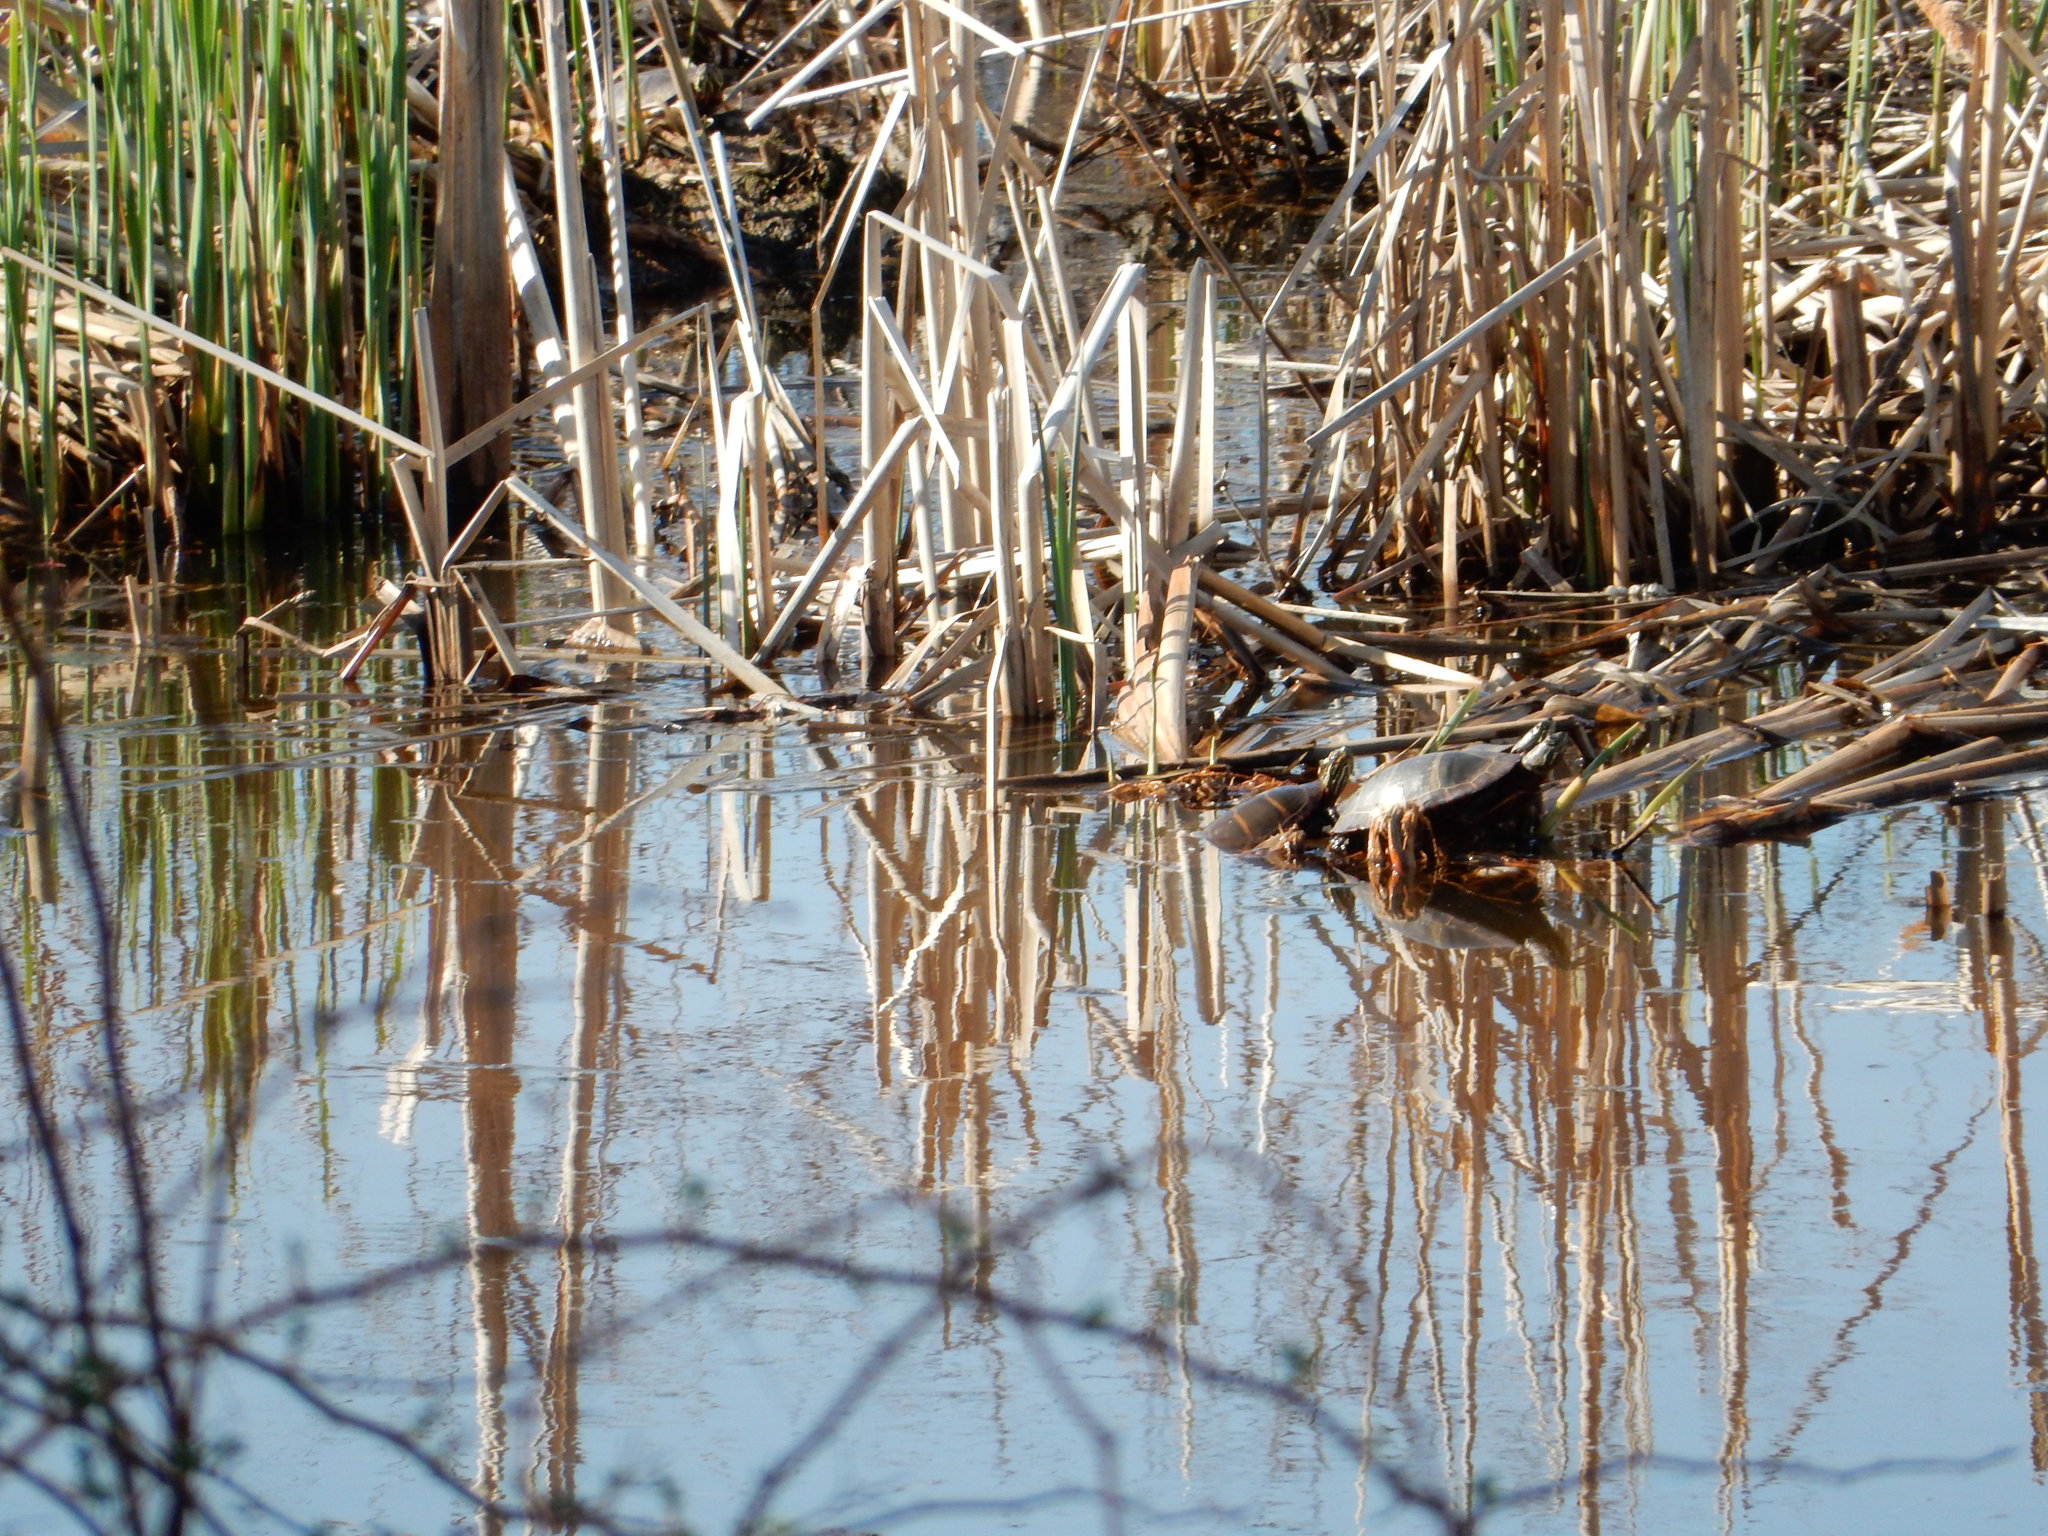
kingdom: Animalia
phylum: Chordata
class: Testudines
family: Emydidae
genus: Chrysemys
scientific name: Chrysemys picta
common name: Painted turtle
